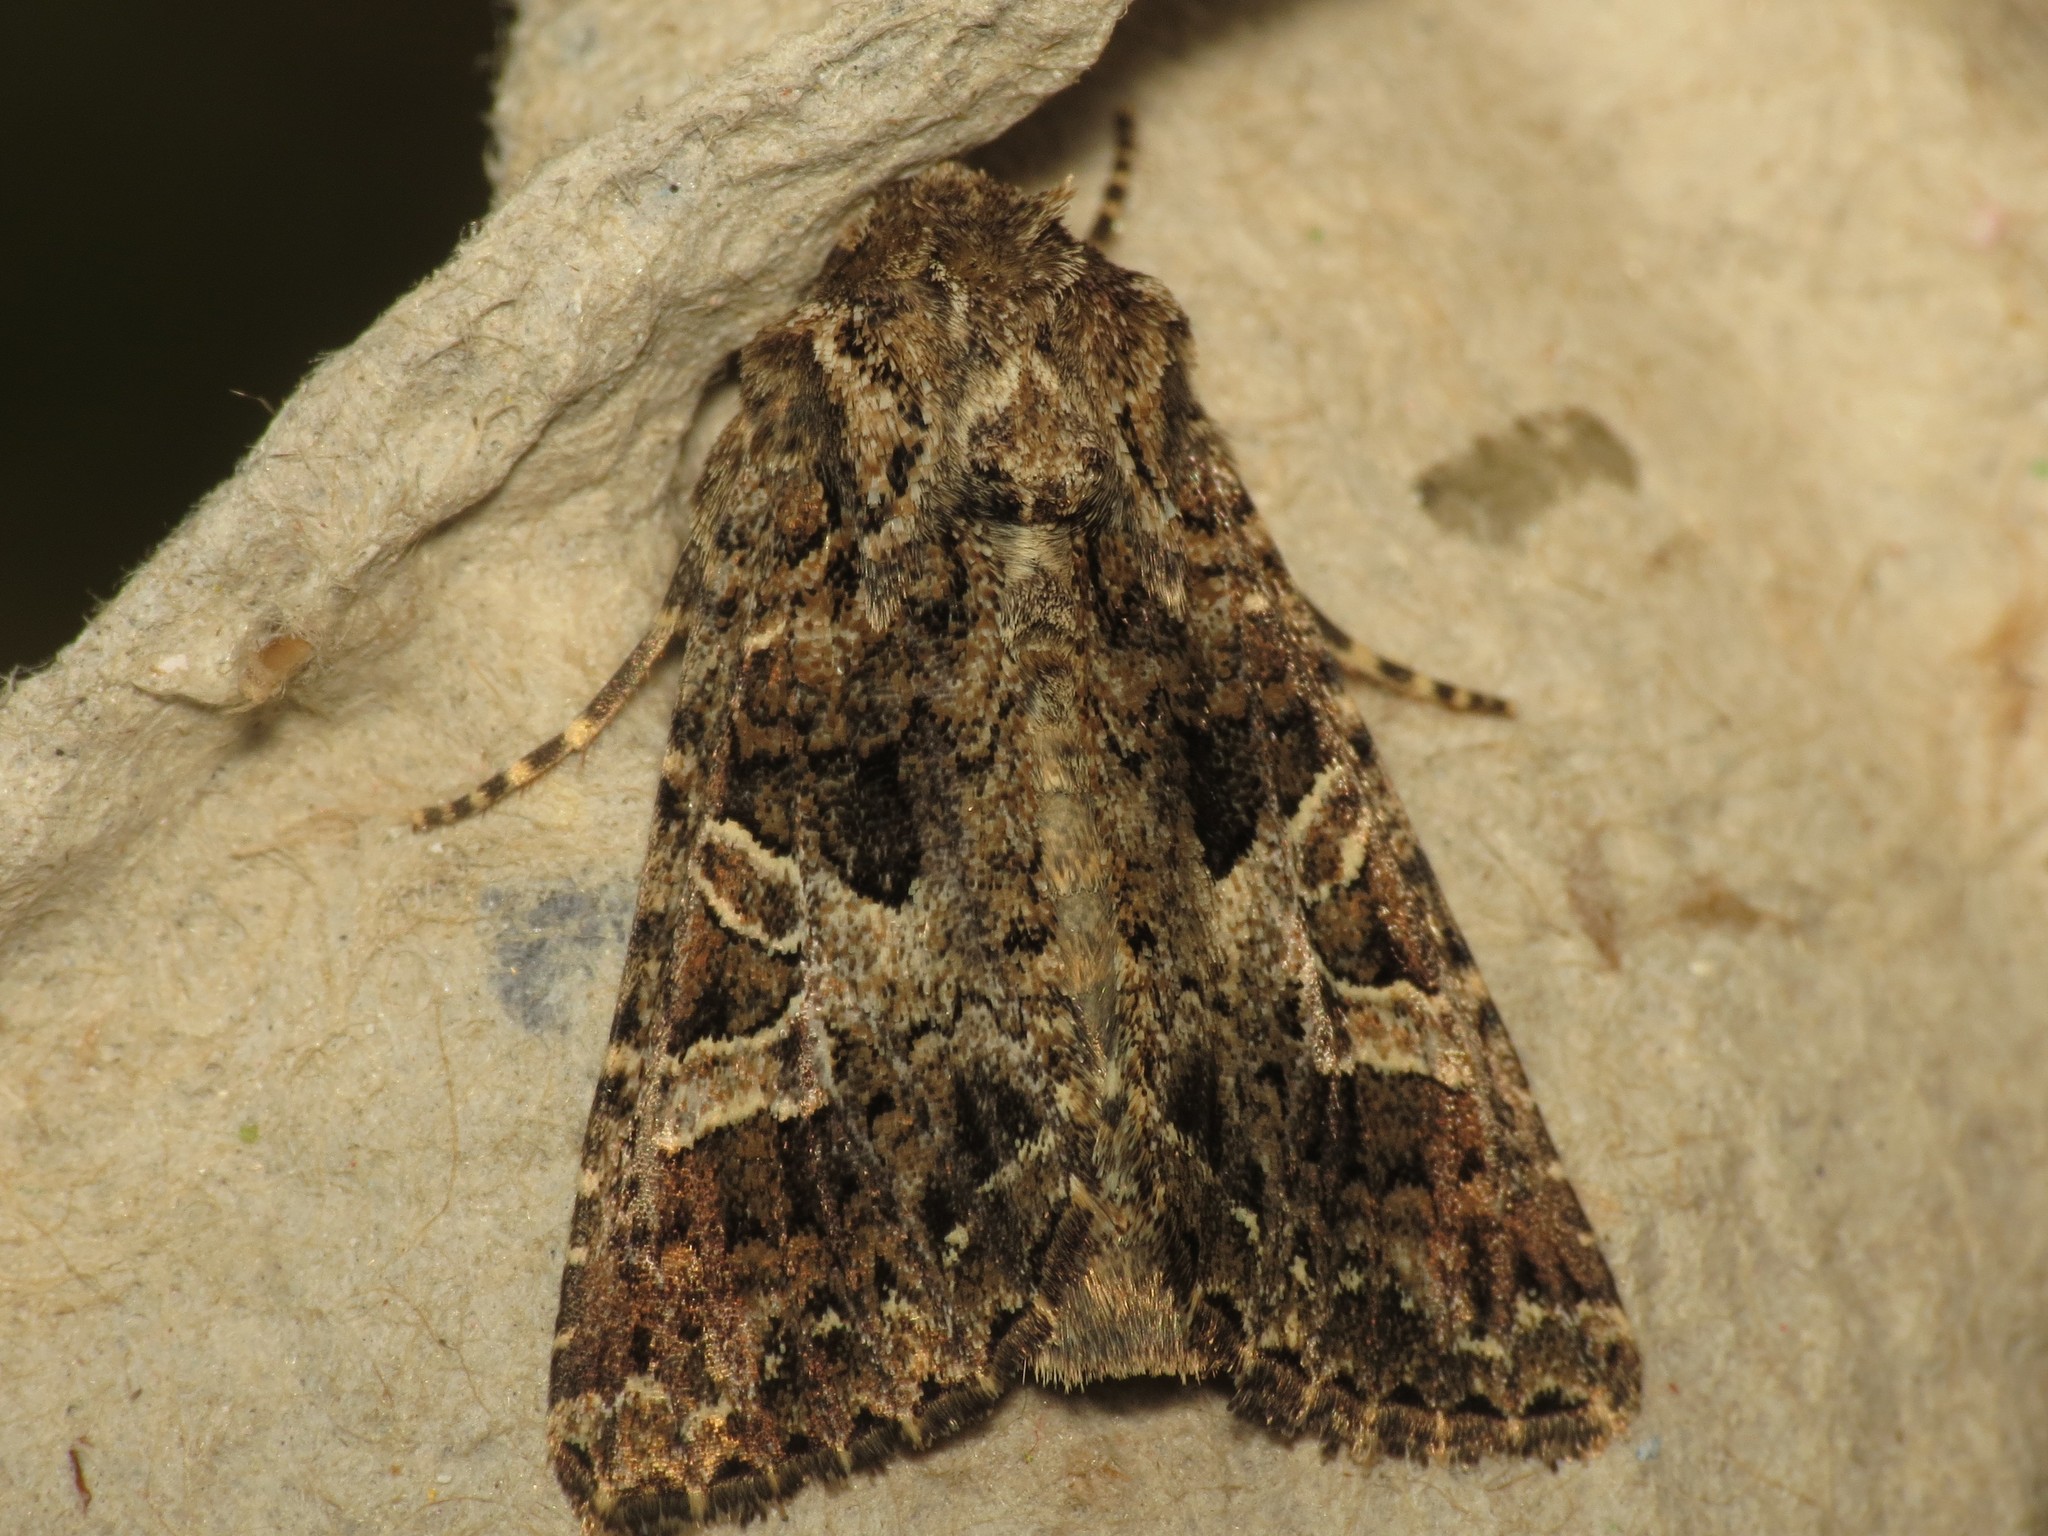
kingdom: Animalia
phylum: Arthropoda
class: Insecta
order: Lepidoptera
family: Noctuidae
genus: Hadena
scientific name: Hadena bicruris
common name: Lychnis
